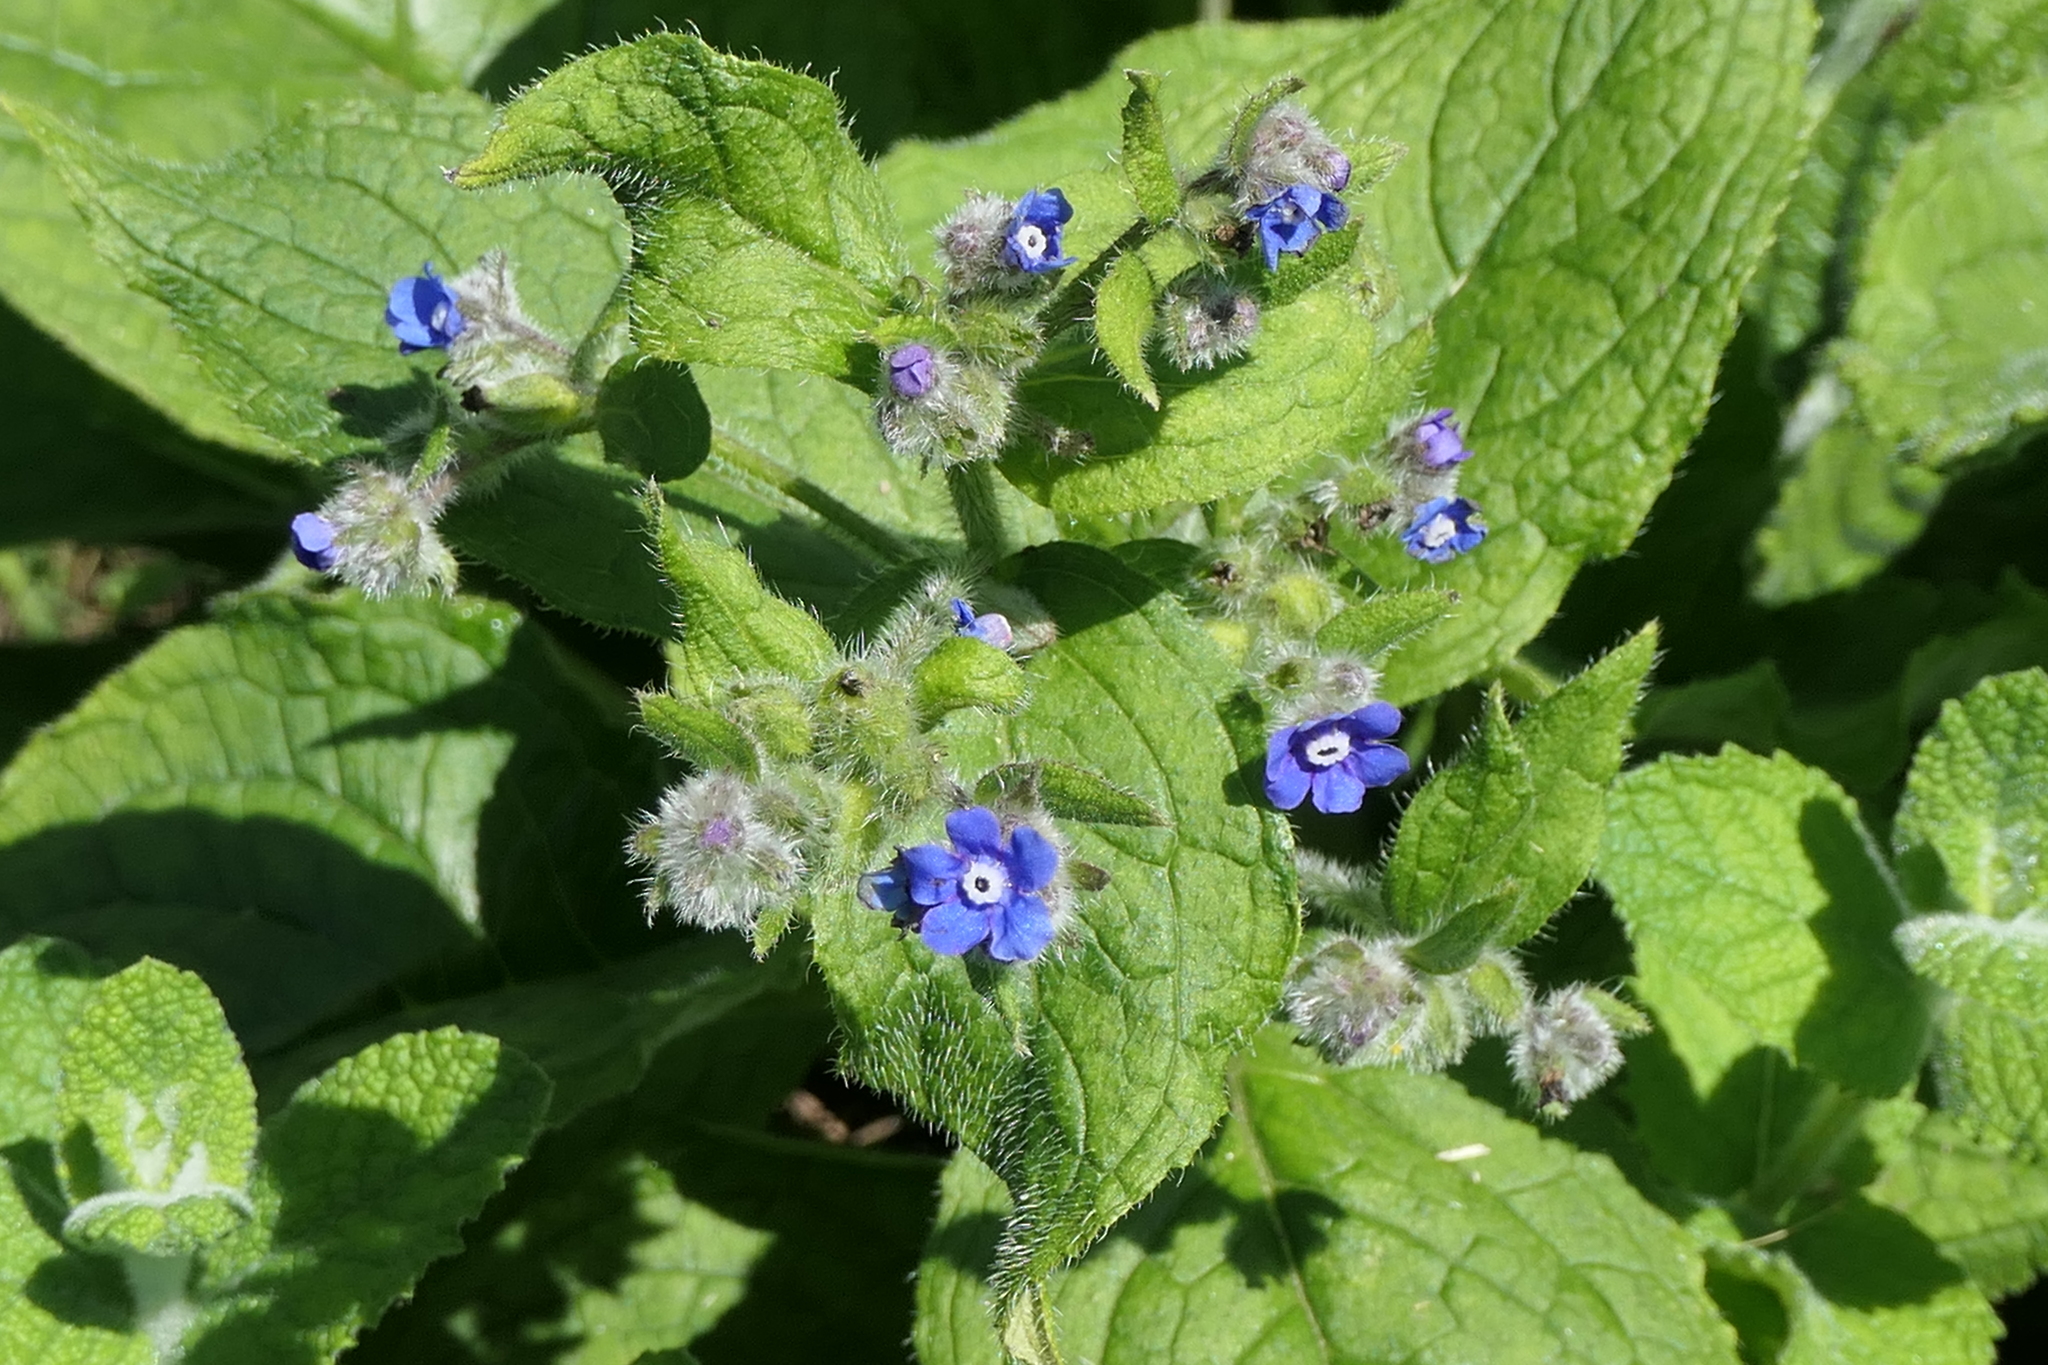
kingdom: Plantae
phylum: Tracheophyta
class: Magnoliopsida
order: Boraginales
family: Boraginaceae
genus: Pentaglottis
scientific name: Pentaglottis sempervirens
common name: Green alkanet
